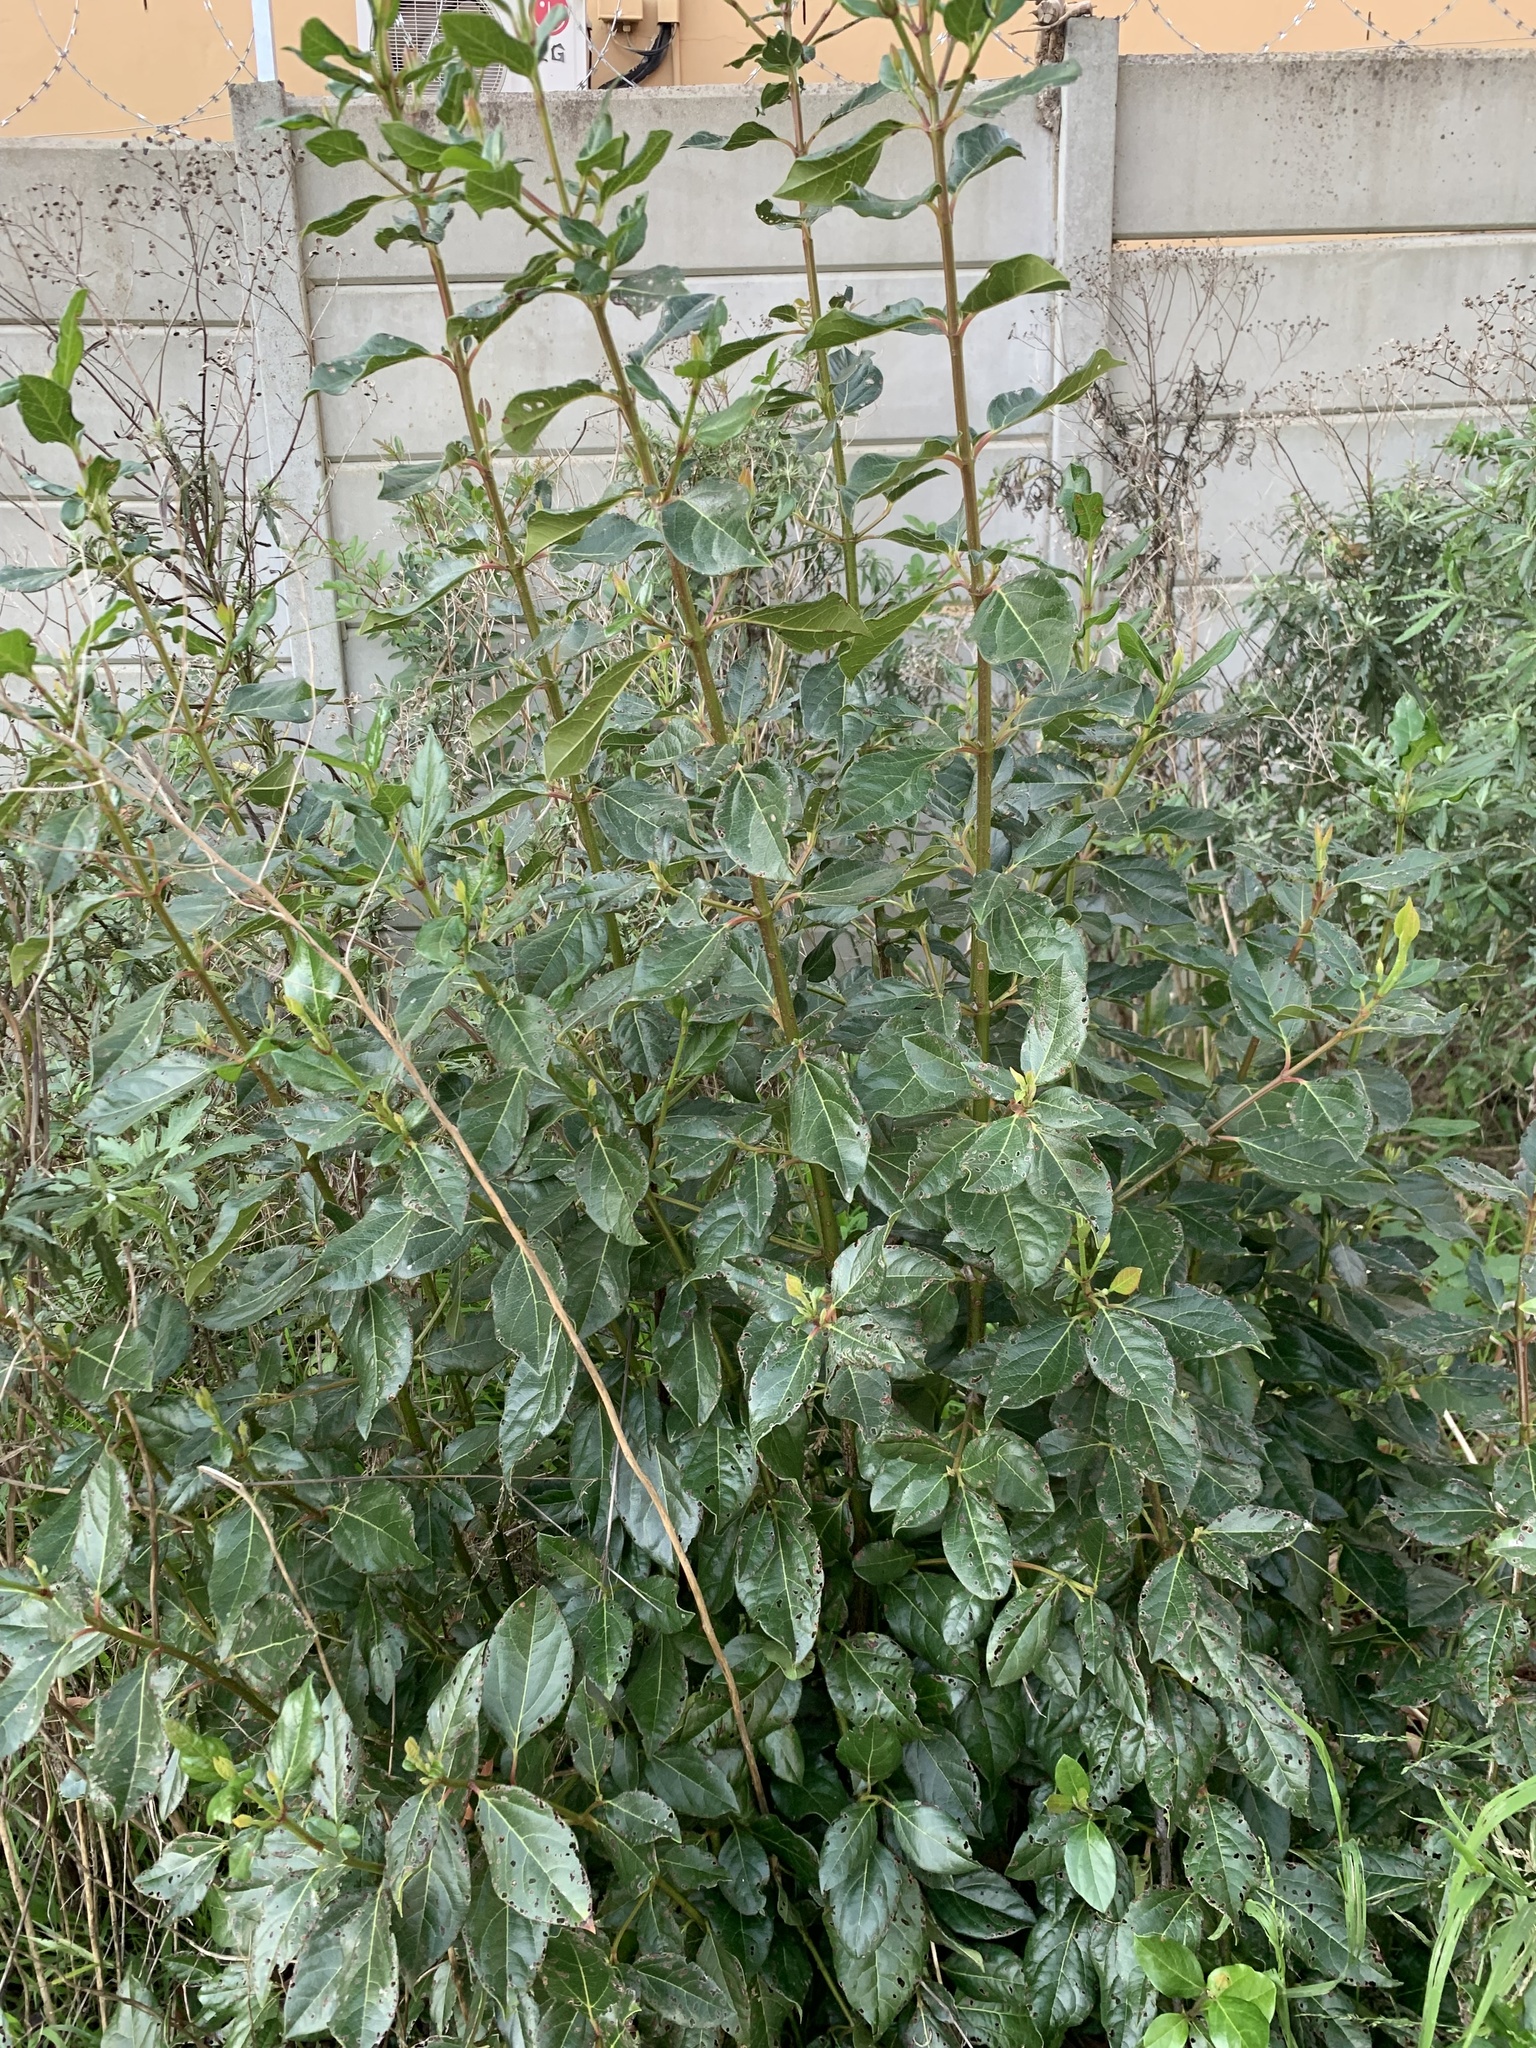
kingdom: Plantae
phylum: Tracheophyta
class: Magnoliopsida
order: Dipsacales
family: Viburnaceae
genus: Viburnum
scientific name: Viburnum tinus
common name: Laurustinus
